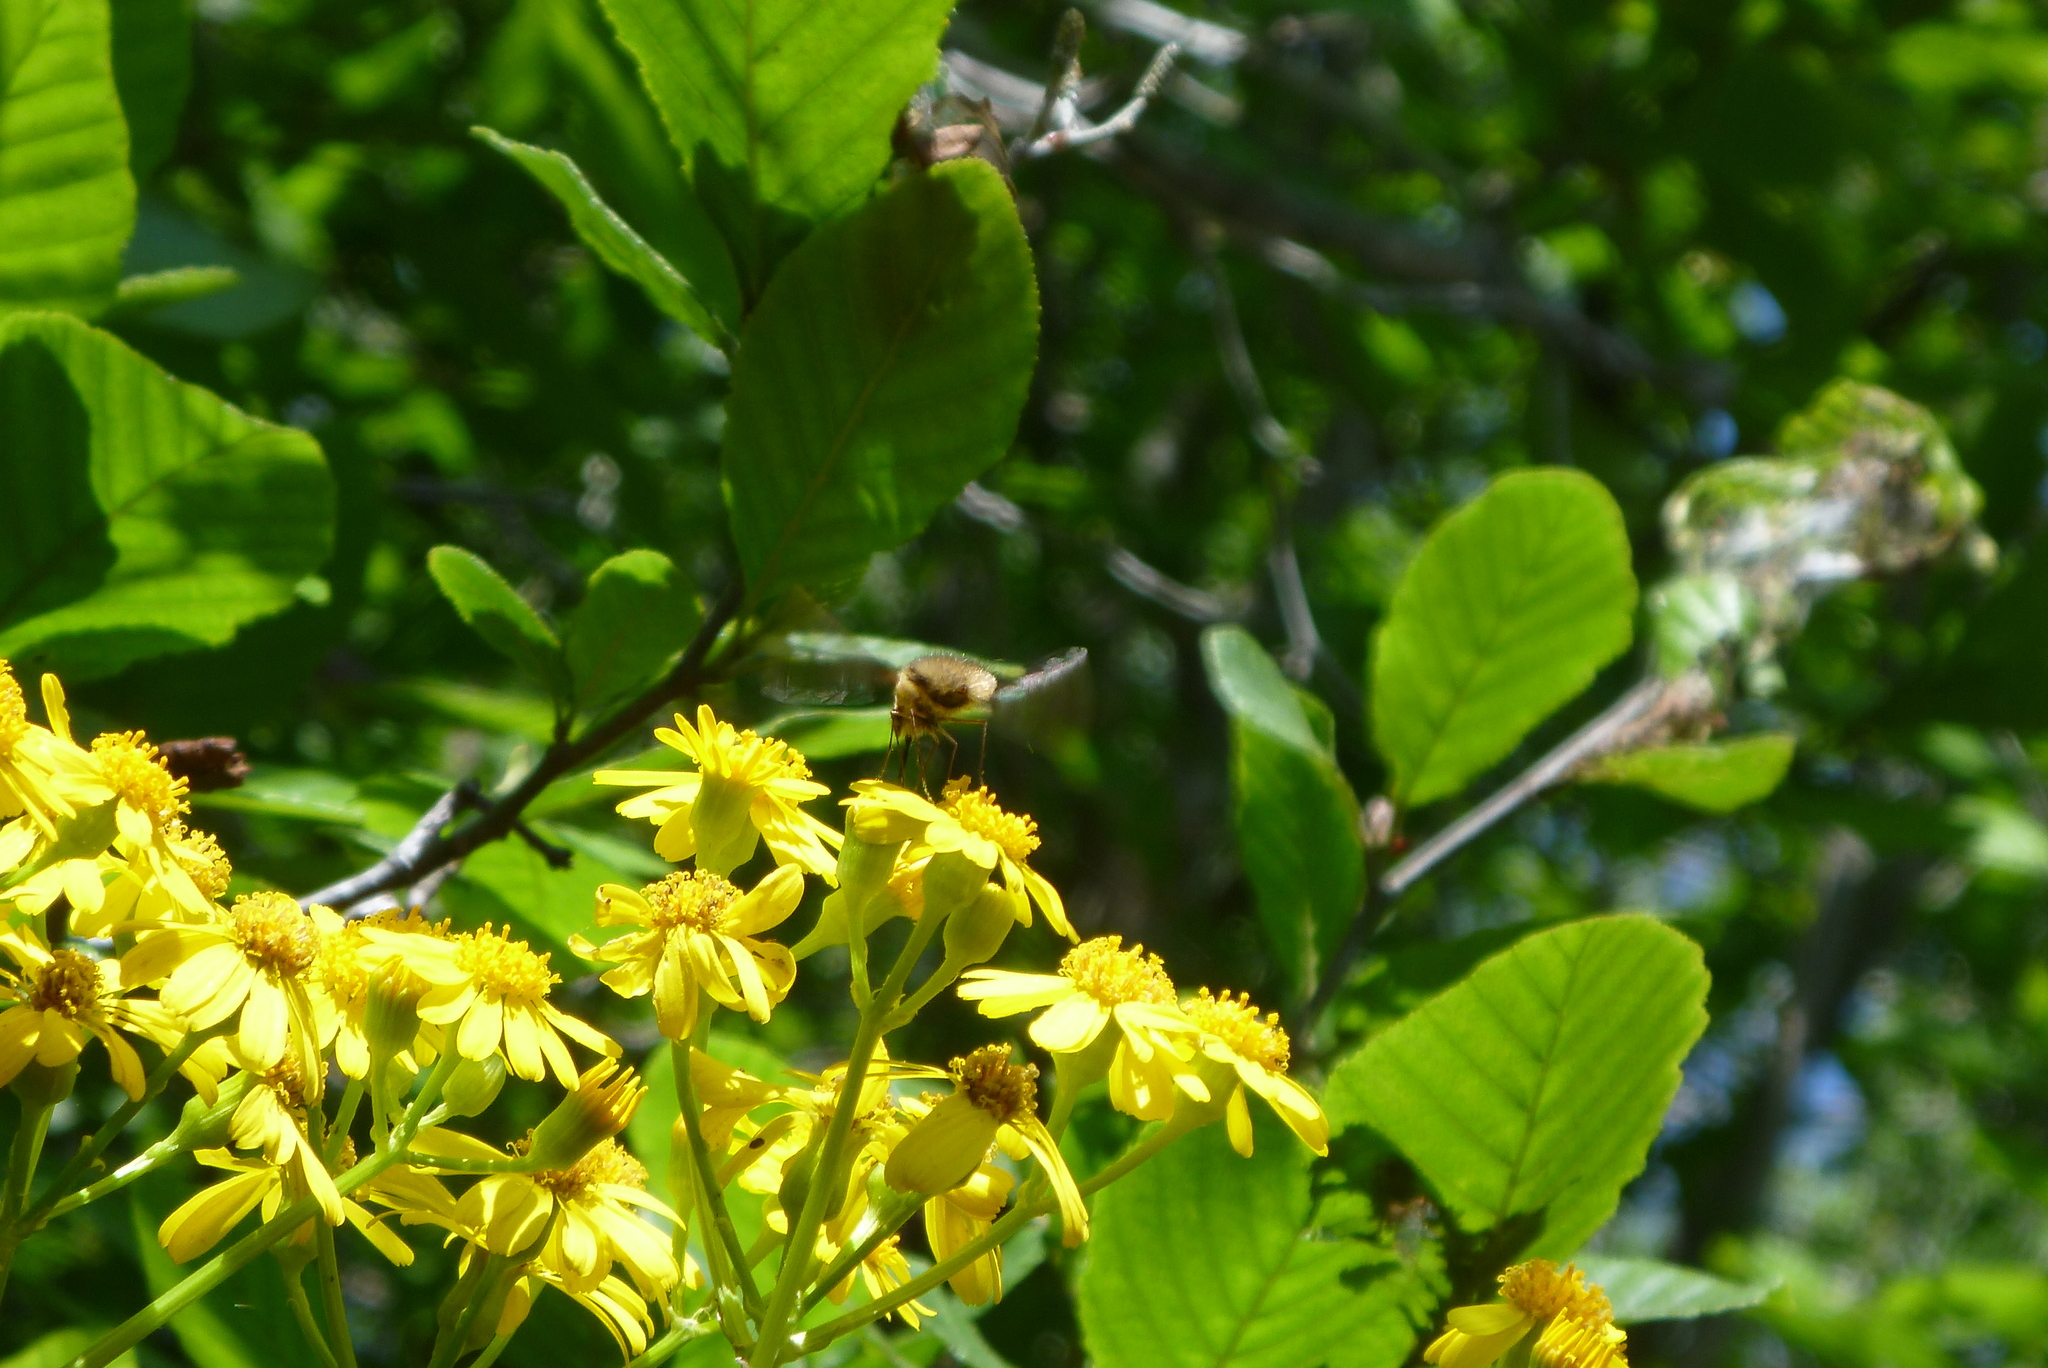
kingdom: Animalia
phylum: Arthropoda
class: Insecta
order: Diptera
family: Bombyliidae
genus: Bombylius
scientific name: Bombylius major
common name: Bee fly
